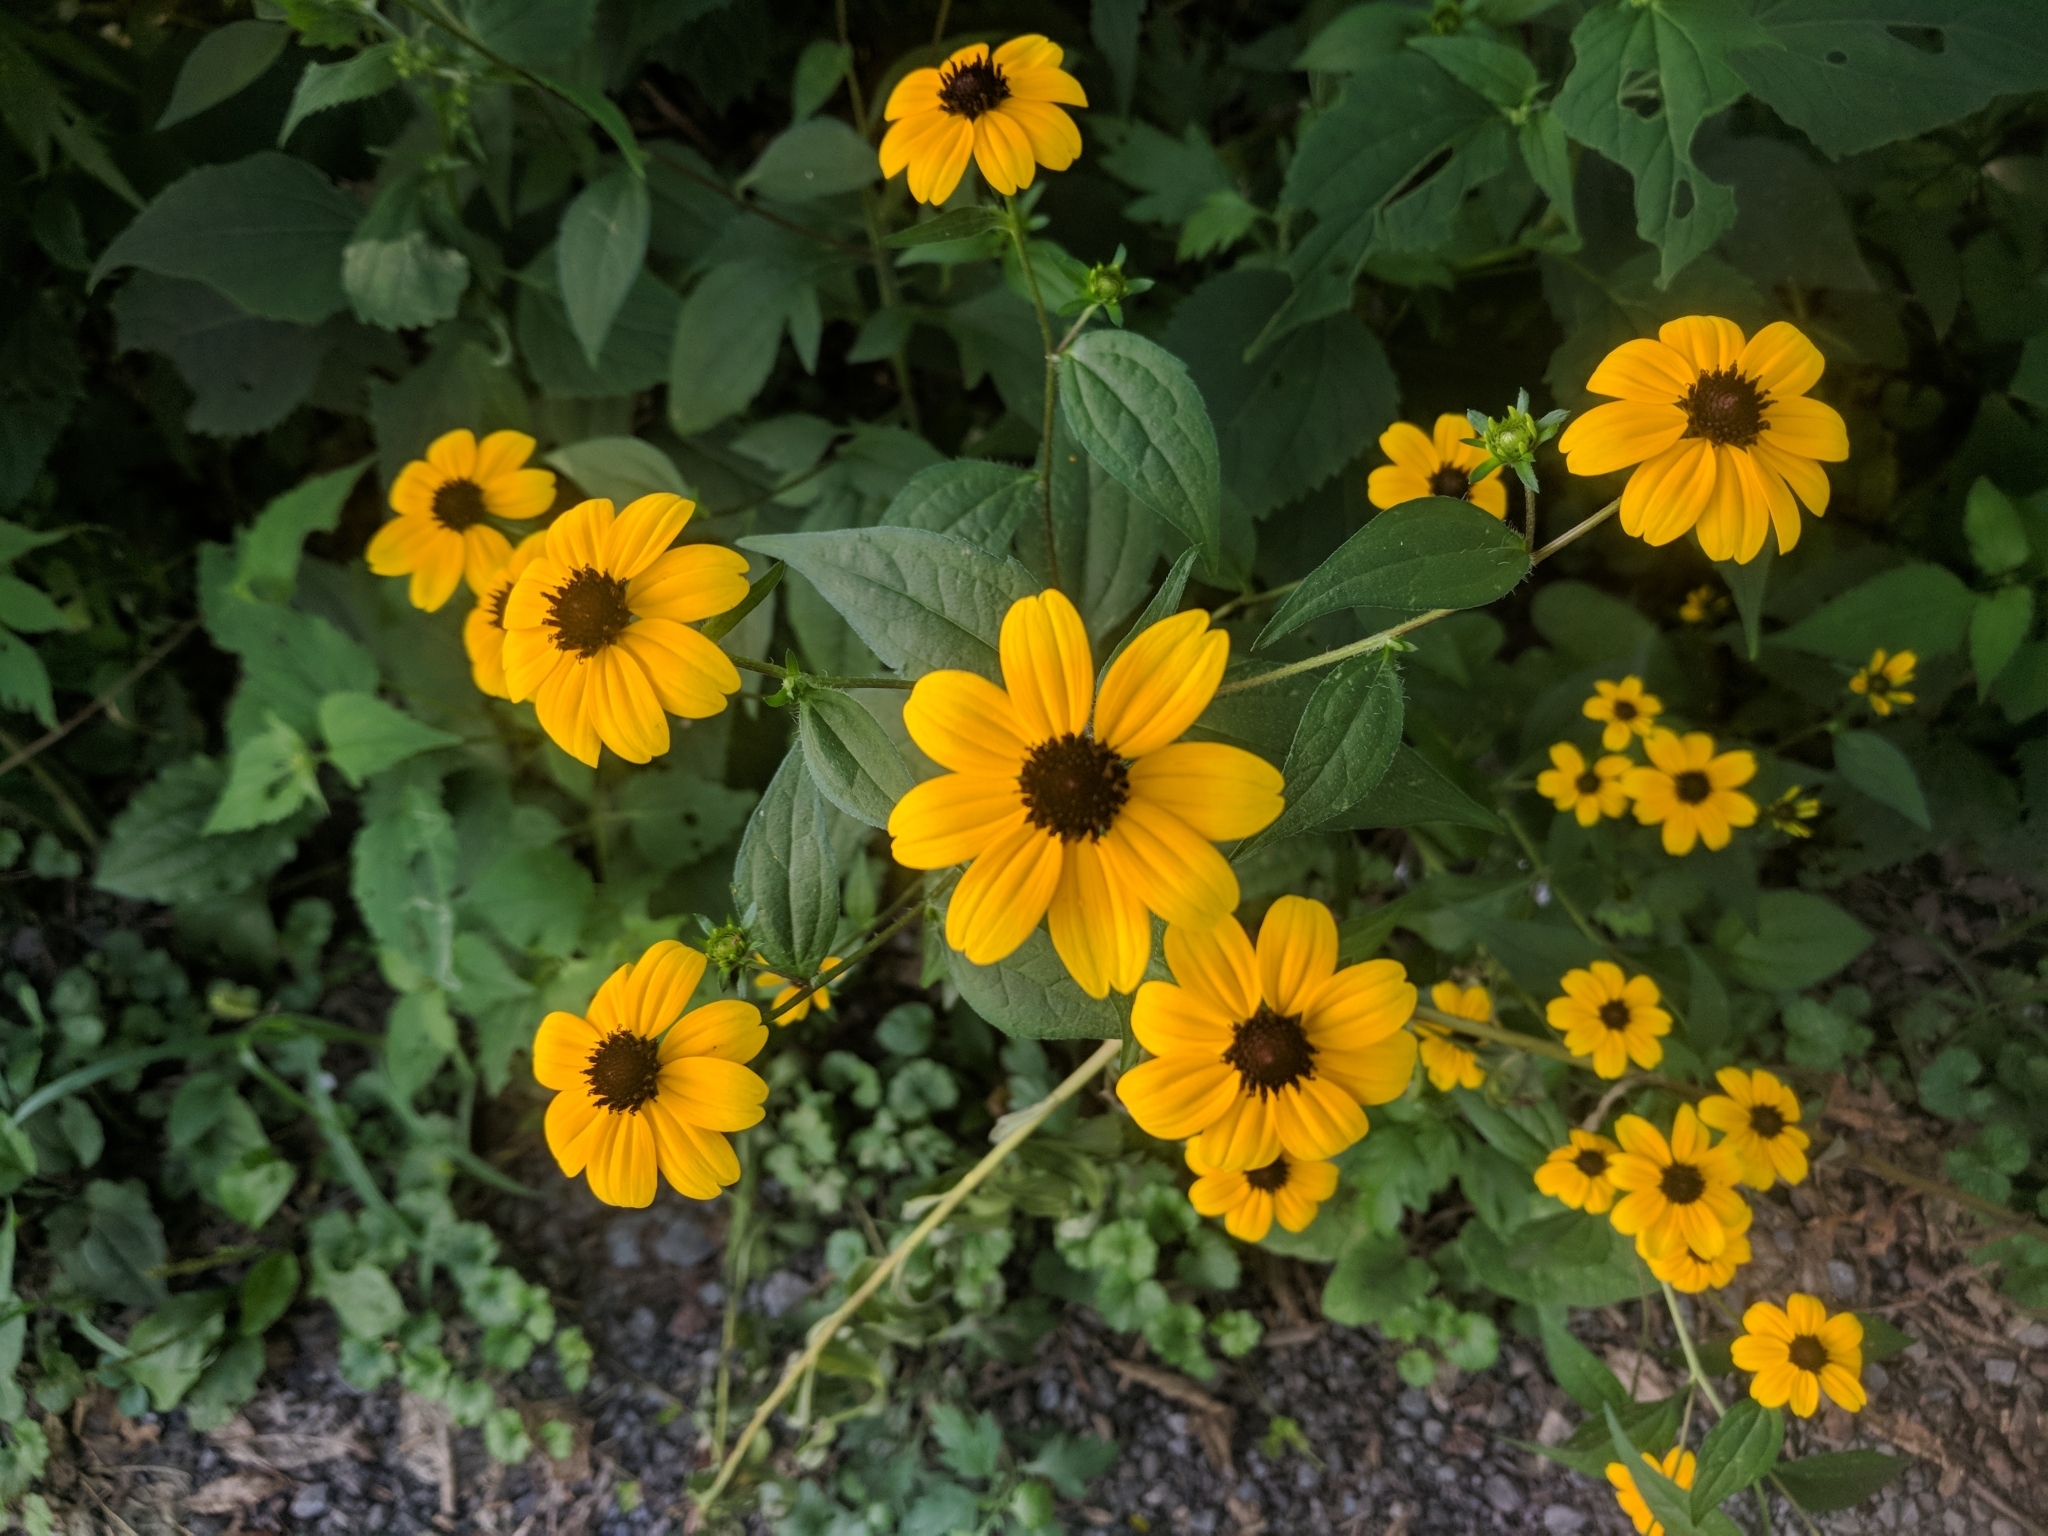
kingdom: Plantae
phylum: Tracheophyta
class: Magnoliopsida
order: Asterales
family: Asteraceae
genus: Rudbeckia
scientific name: Rudbeckia triloba
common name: Thin-leaved coneflower
